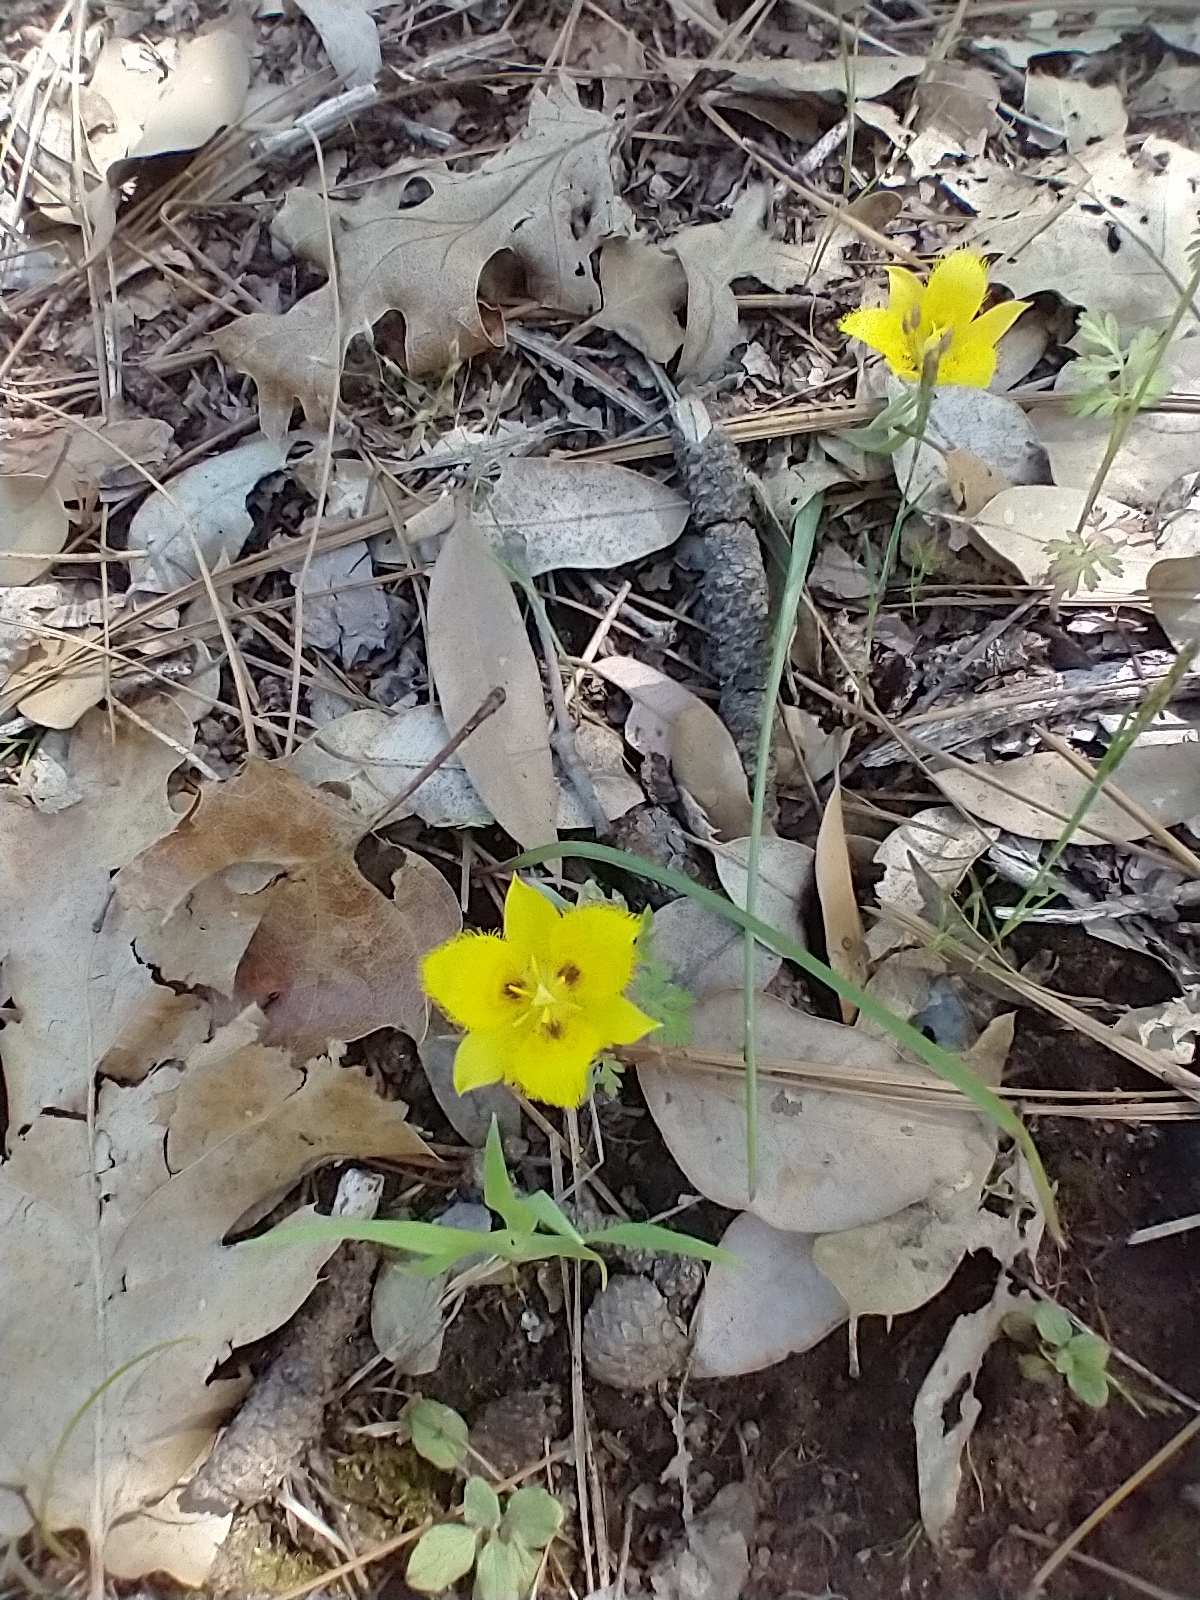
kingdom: Plantae
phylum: Tracheophyta
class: Liliopsida
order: Liliales
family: Liliaceae
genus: Calochortus
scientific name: Calochortus monophyllus
